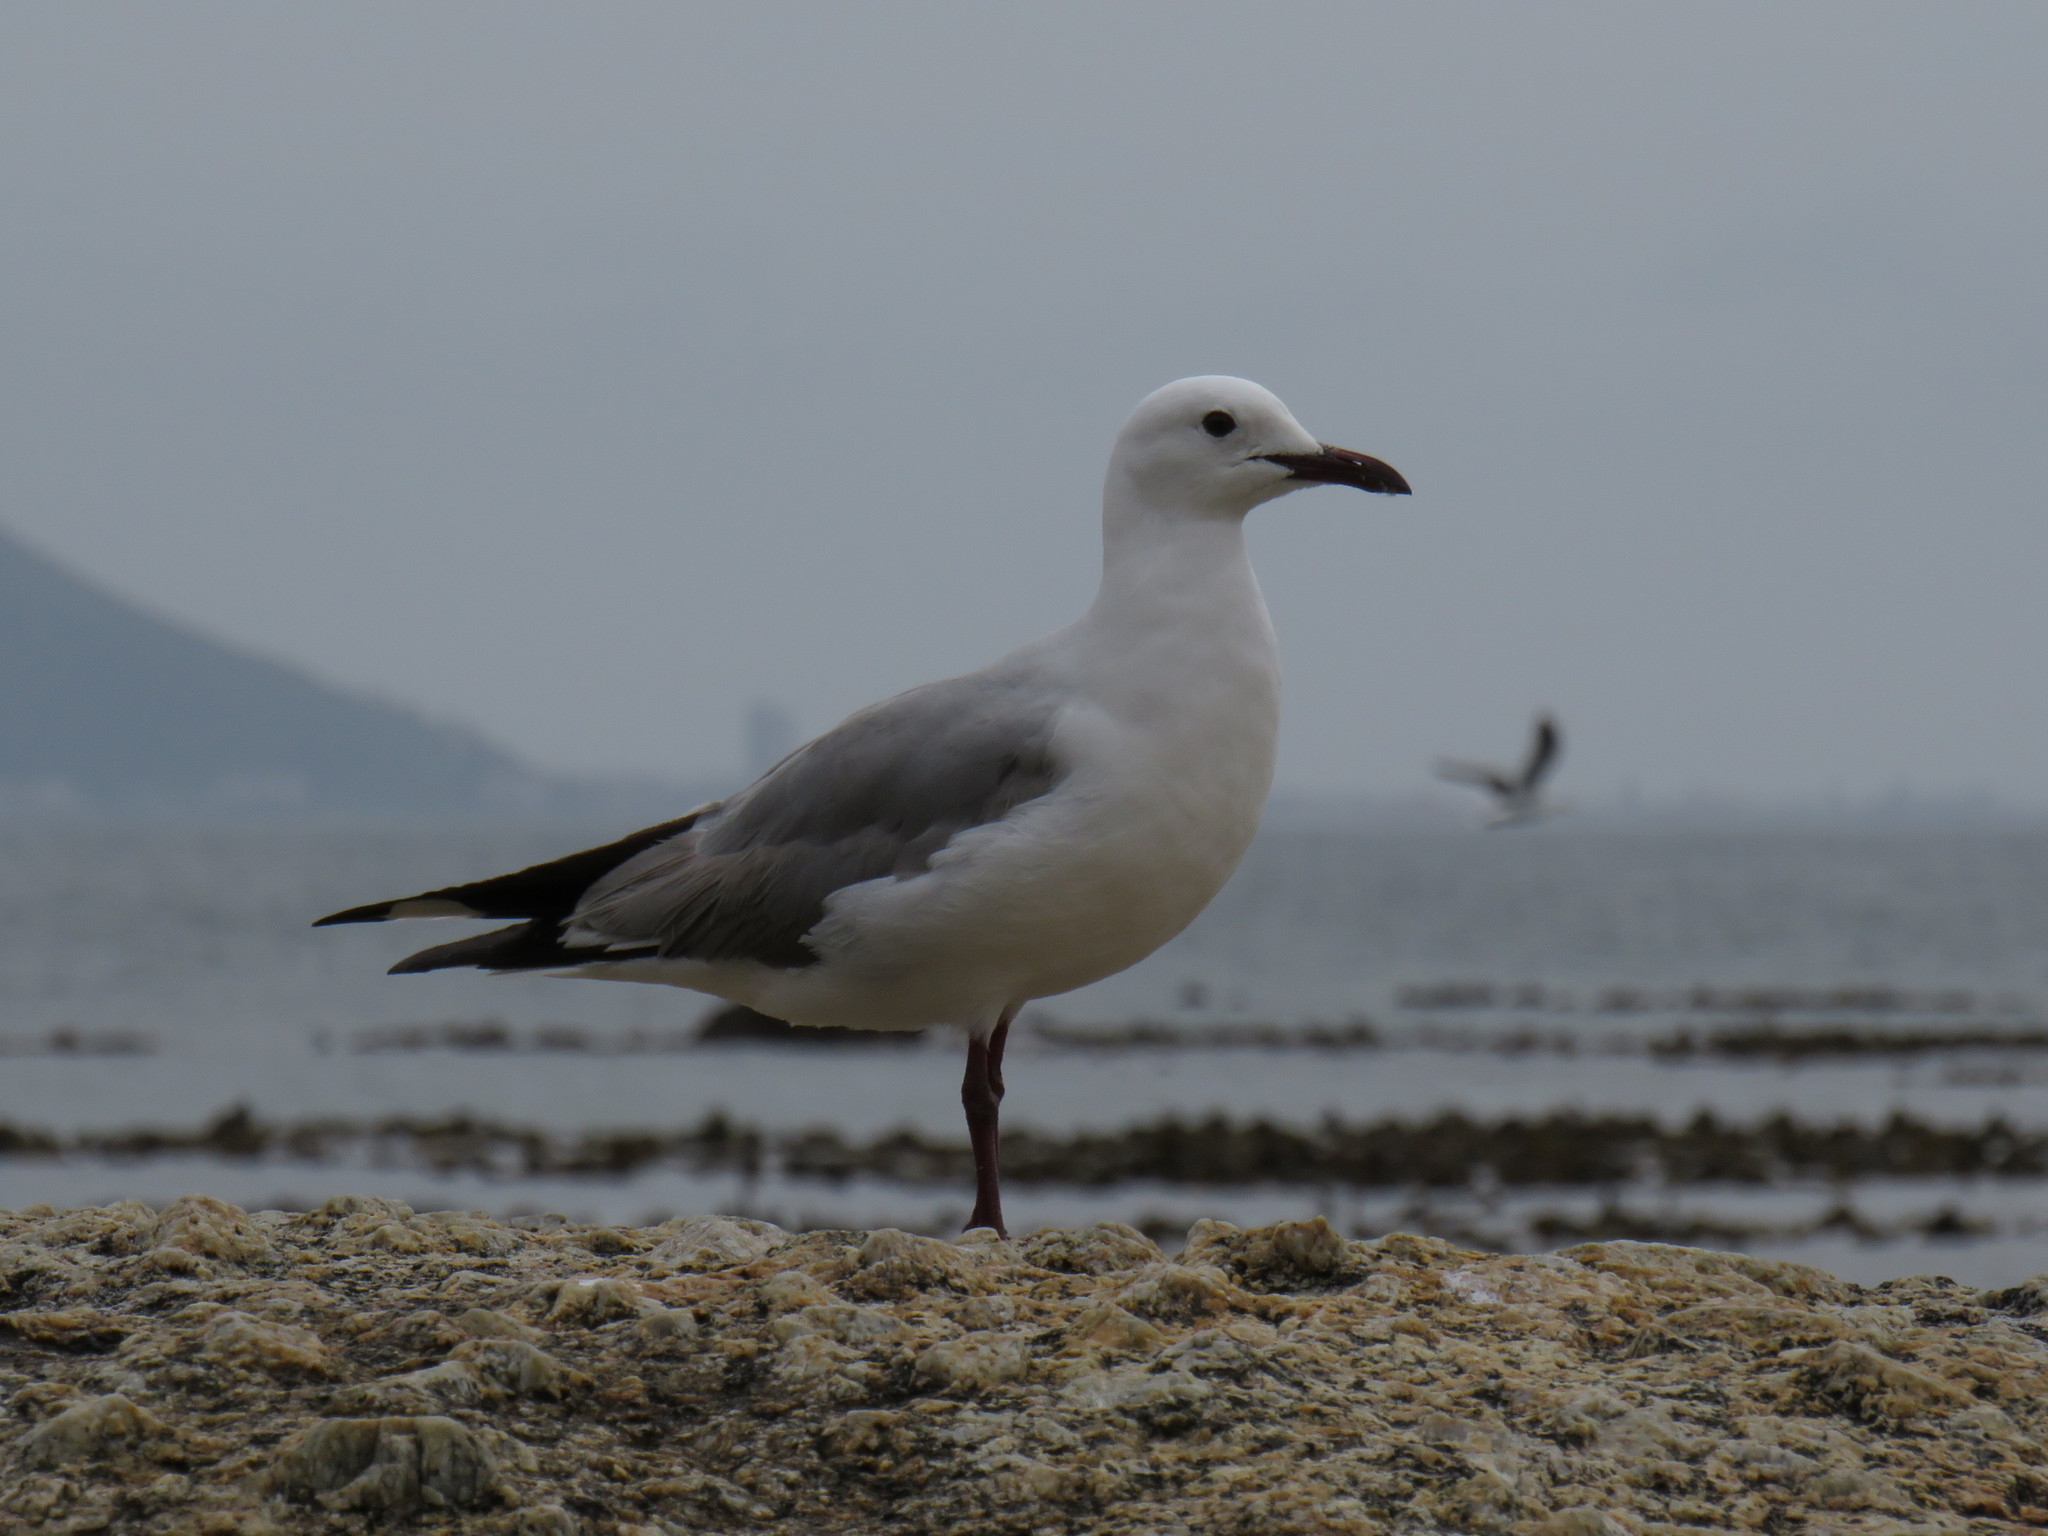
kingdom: Animalia
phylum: Chordata
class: Aves
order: Charadriiformes
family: Laridae
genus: Chroicocephalus
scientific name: Chroicocephalus hartlaubii
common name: Hartlaub's gull
